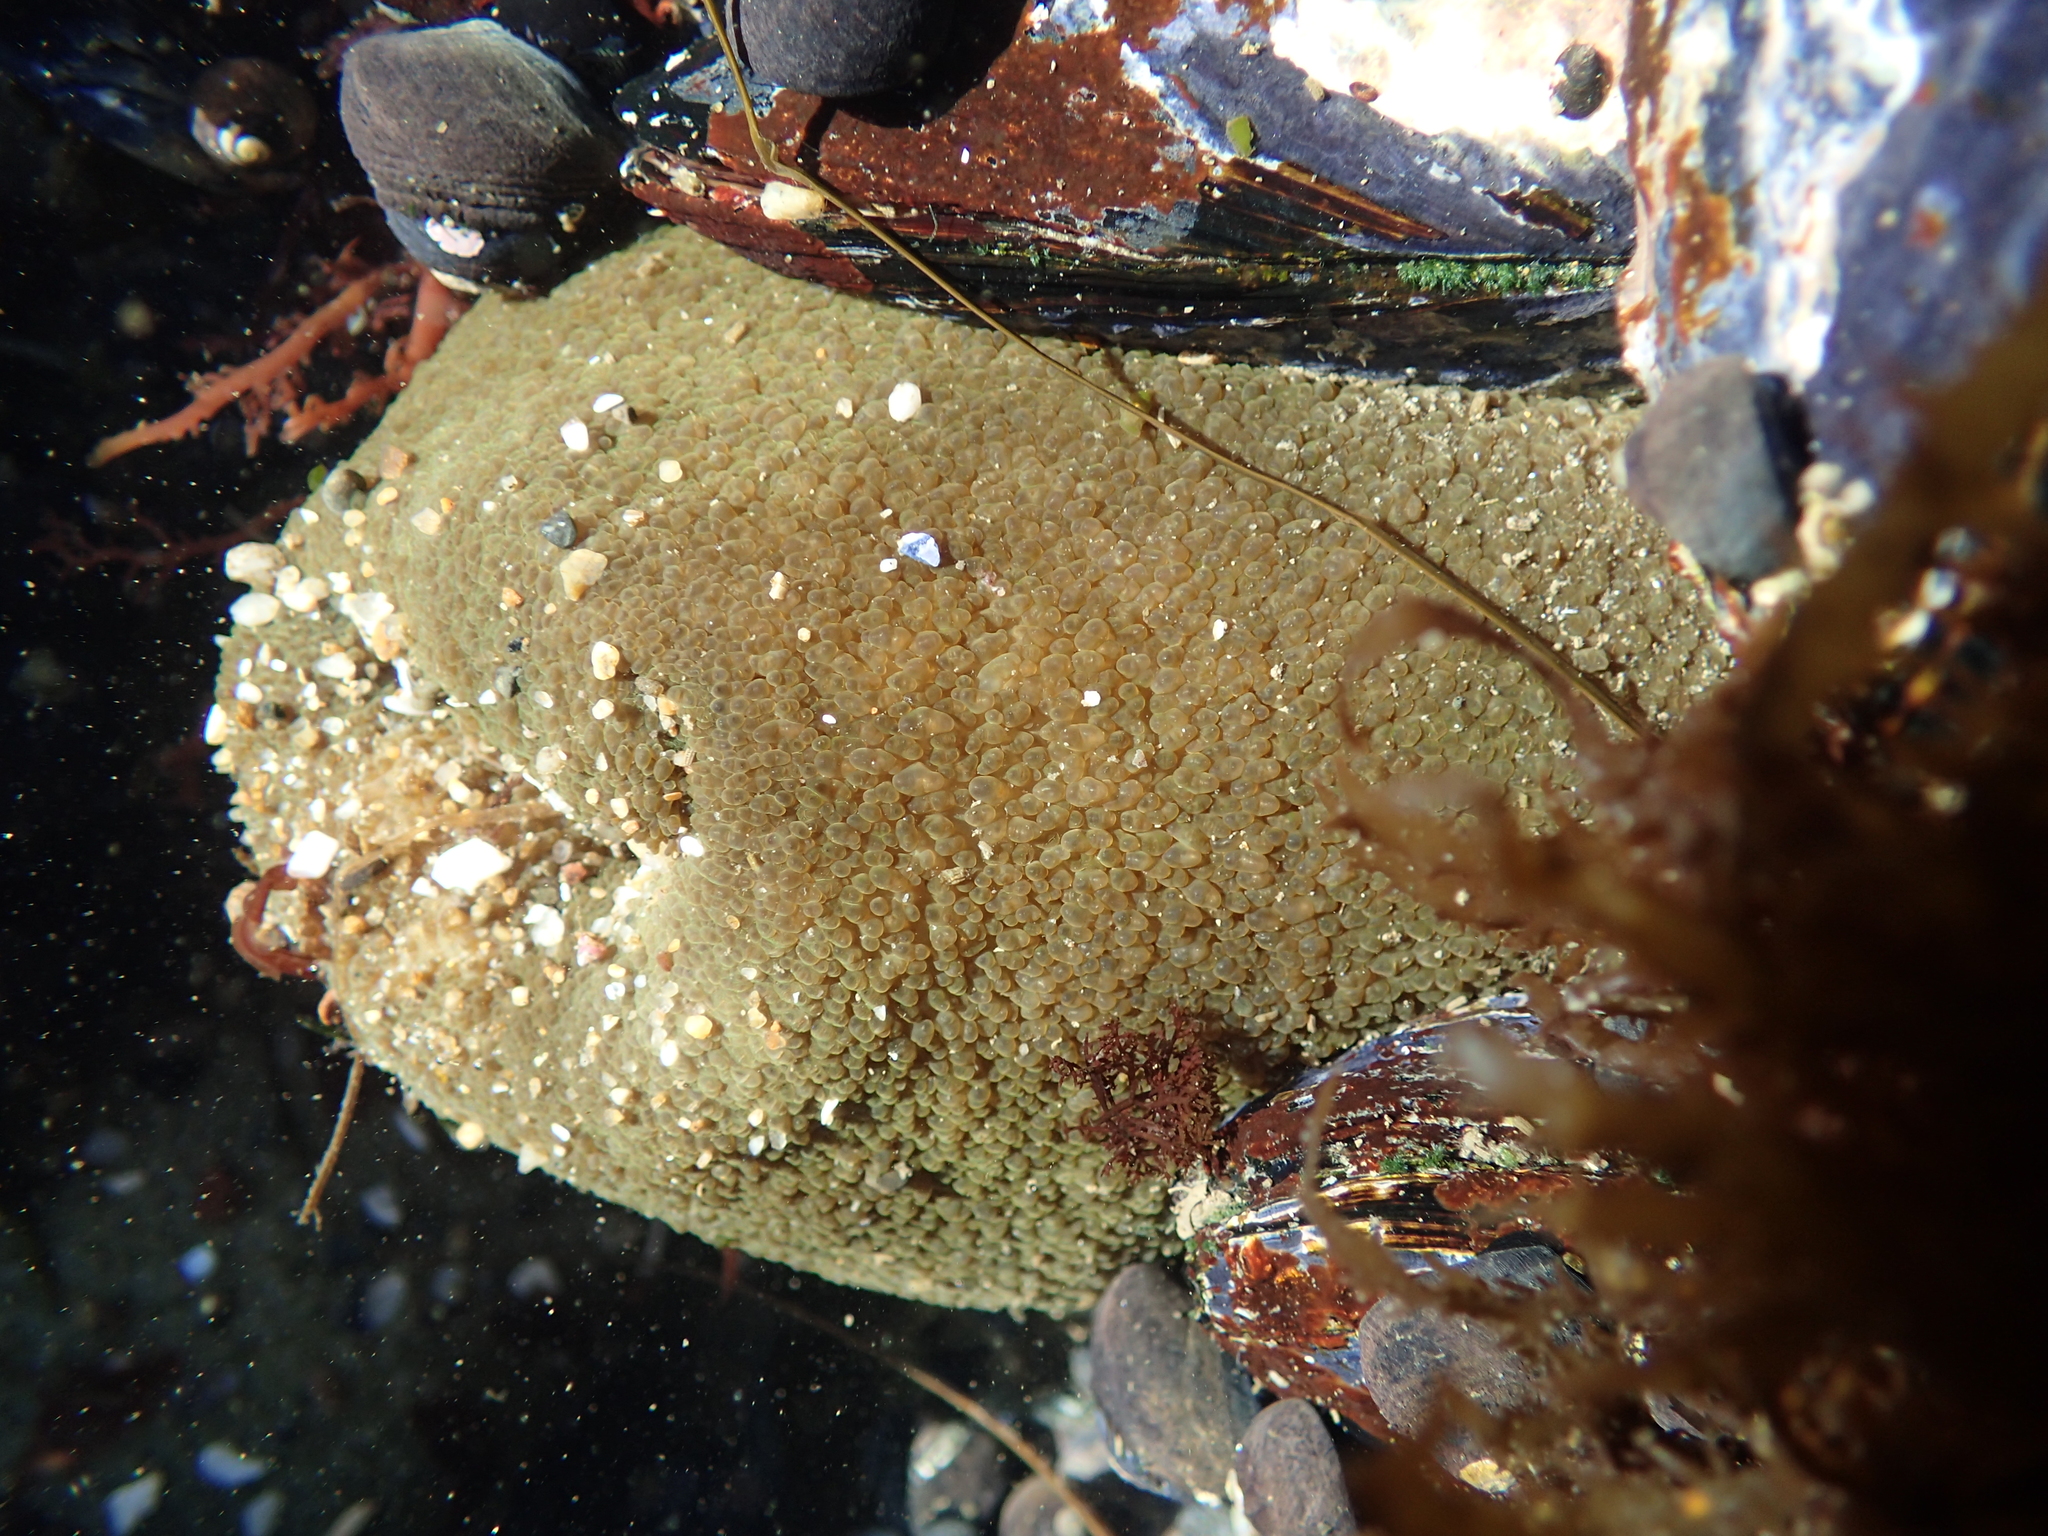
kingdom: Animalia
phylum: Cnidaria
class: Anthozoa
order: Actiniaria
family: Actiniidae
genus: Anthopleura
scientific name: Anthopleura xanthogrammica
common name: Giant green anemone
